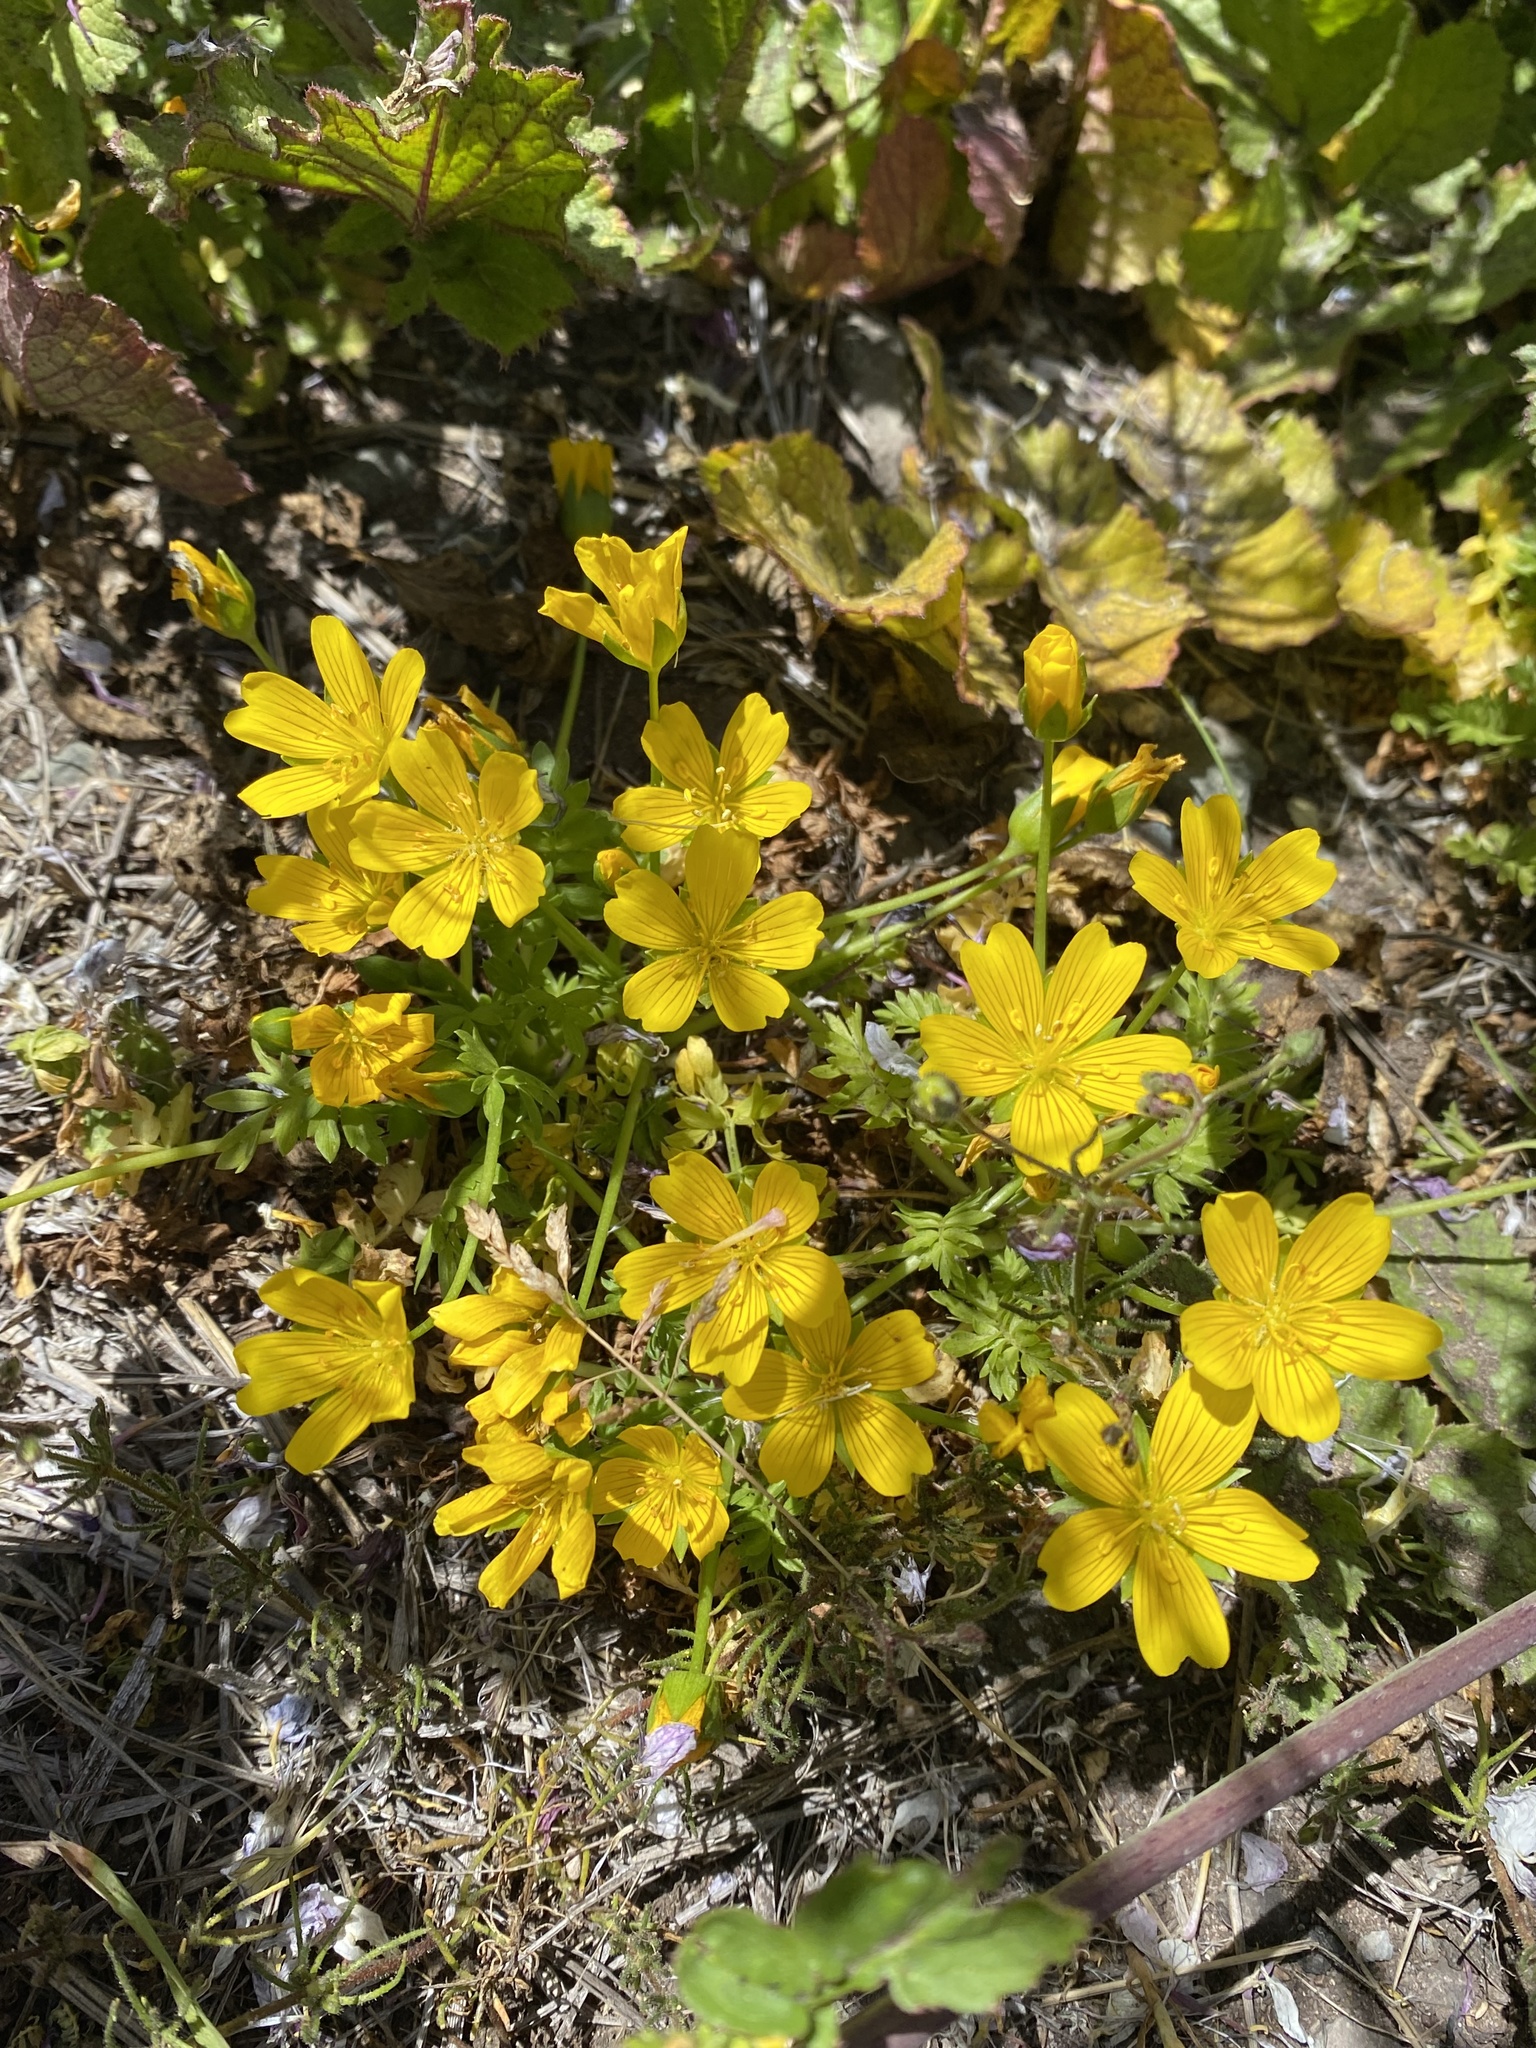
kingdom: Plantae
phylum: Tracheophyta
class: Magnoliopsida
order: Brassicales
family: Limnanthaceae
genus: Limnanthes
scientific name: Limnanthes douglasii
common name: Meadow-foam
